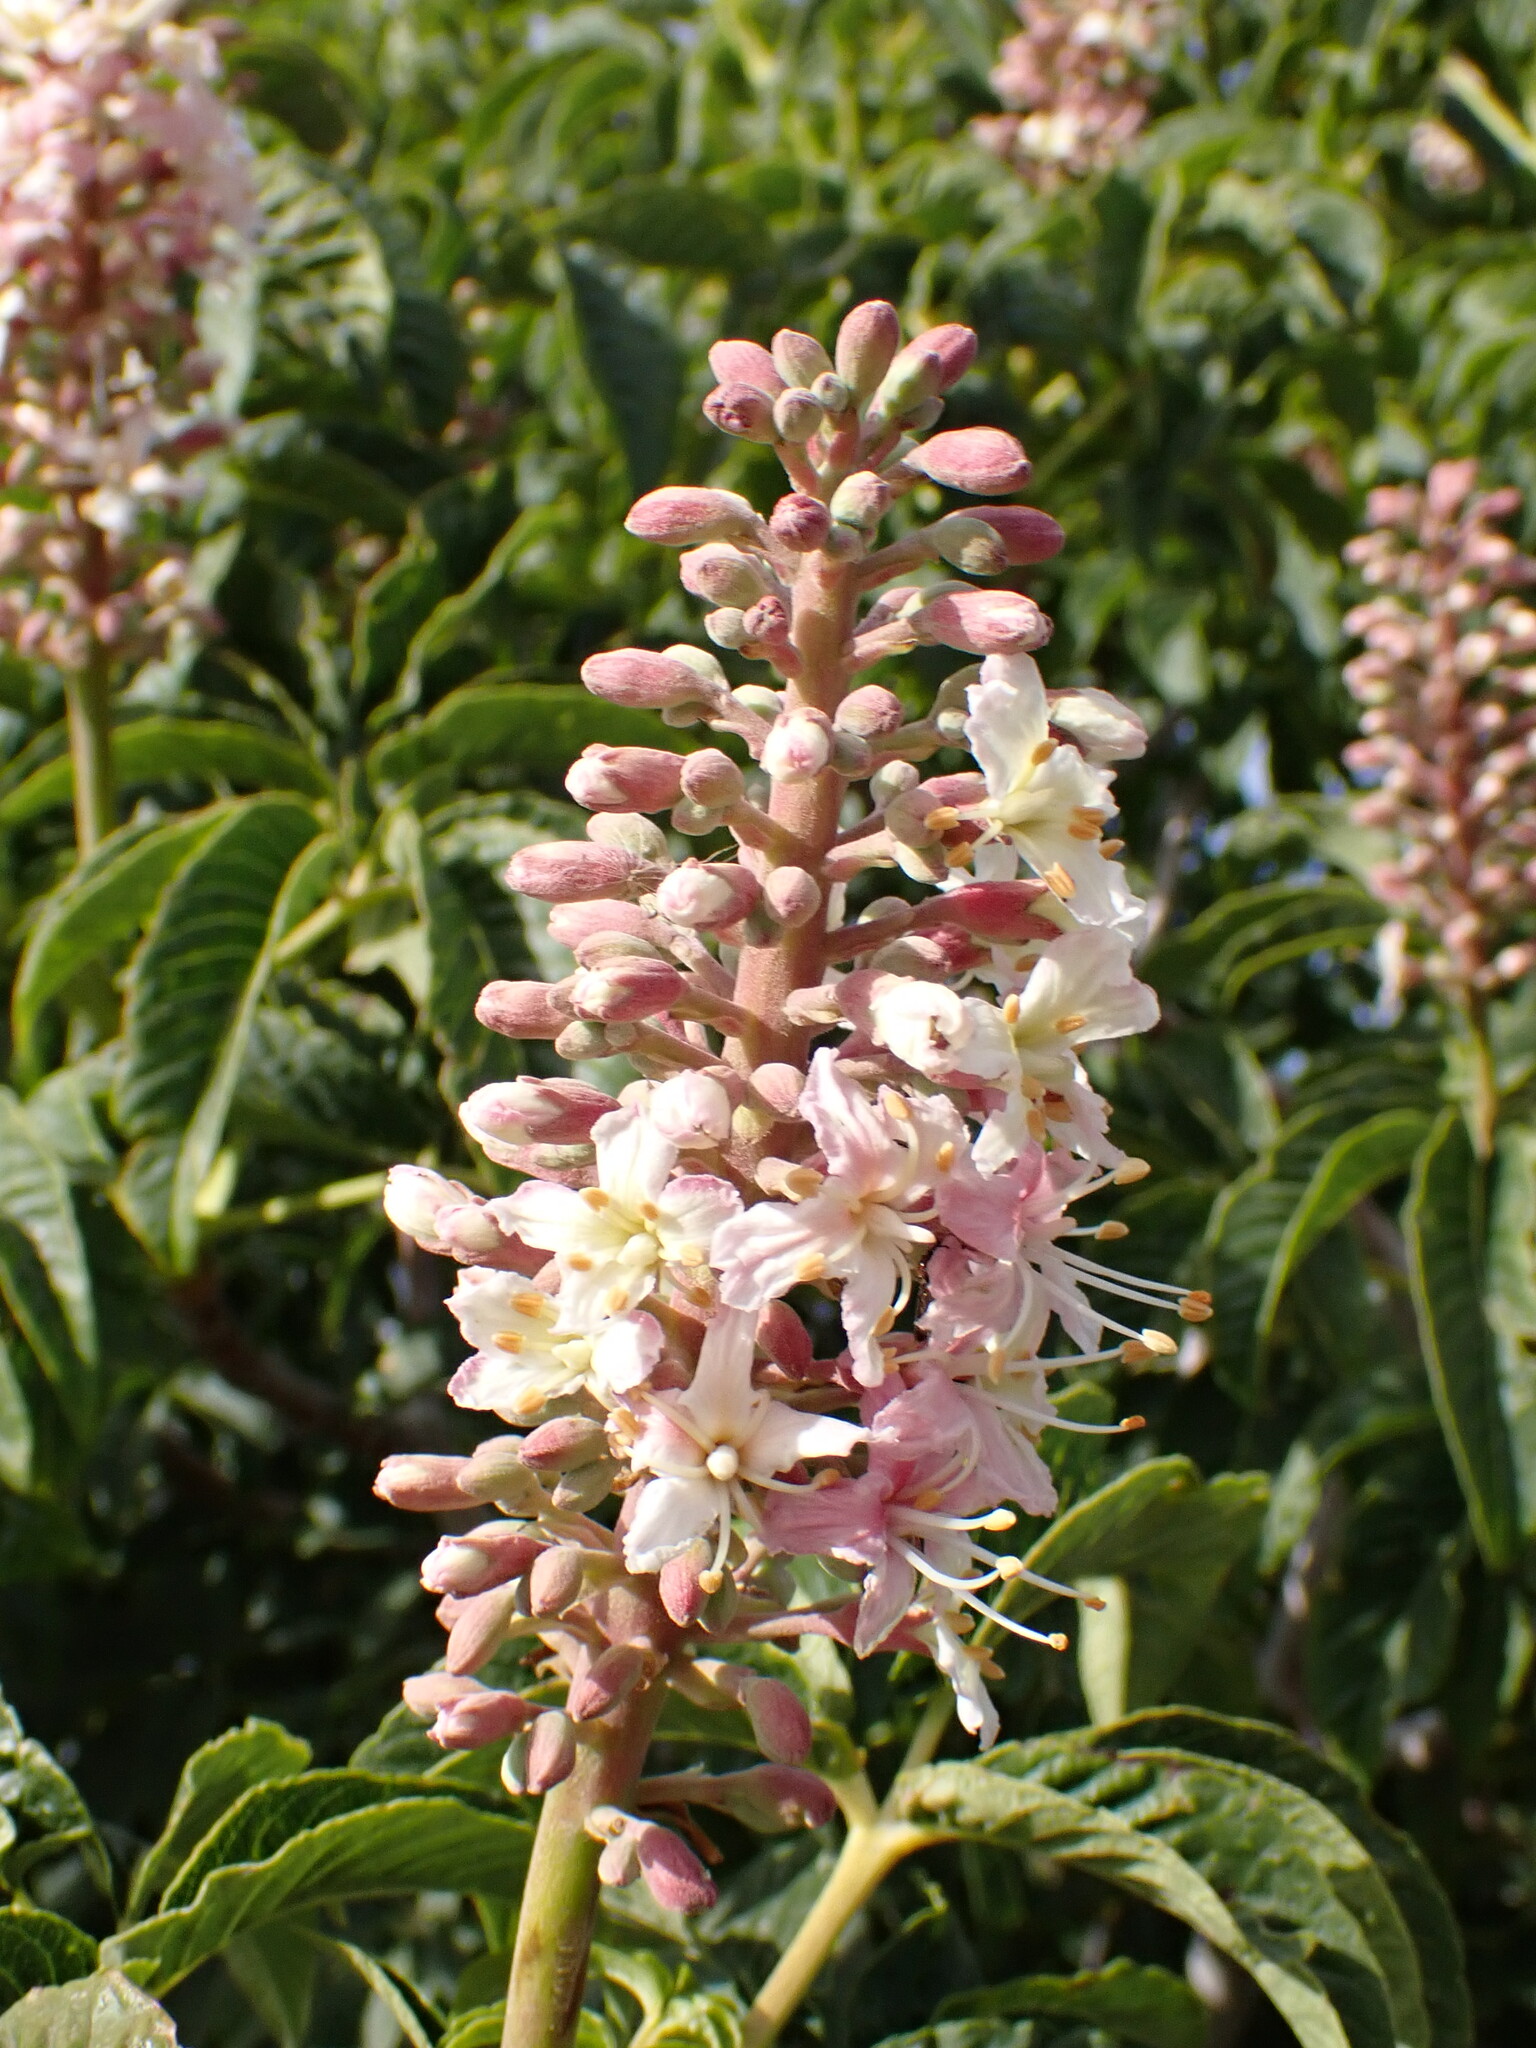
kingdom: Plantae
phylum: Tracheophyta
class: Magnoliopsida
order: Sapindales
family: Sapindaceae
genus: Aesculus
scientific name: Aesculus californica
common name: California buckeye
